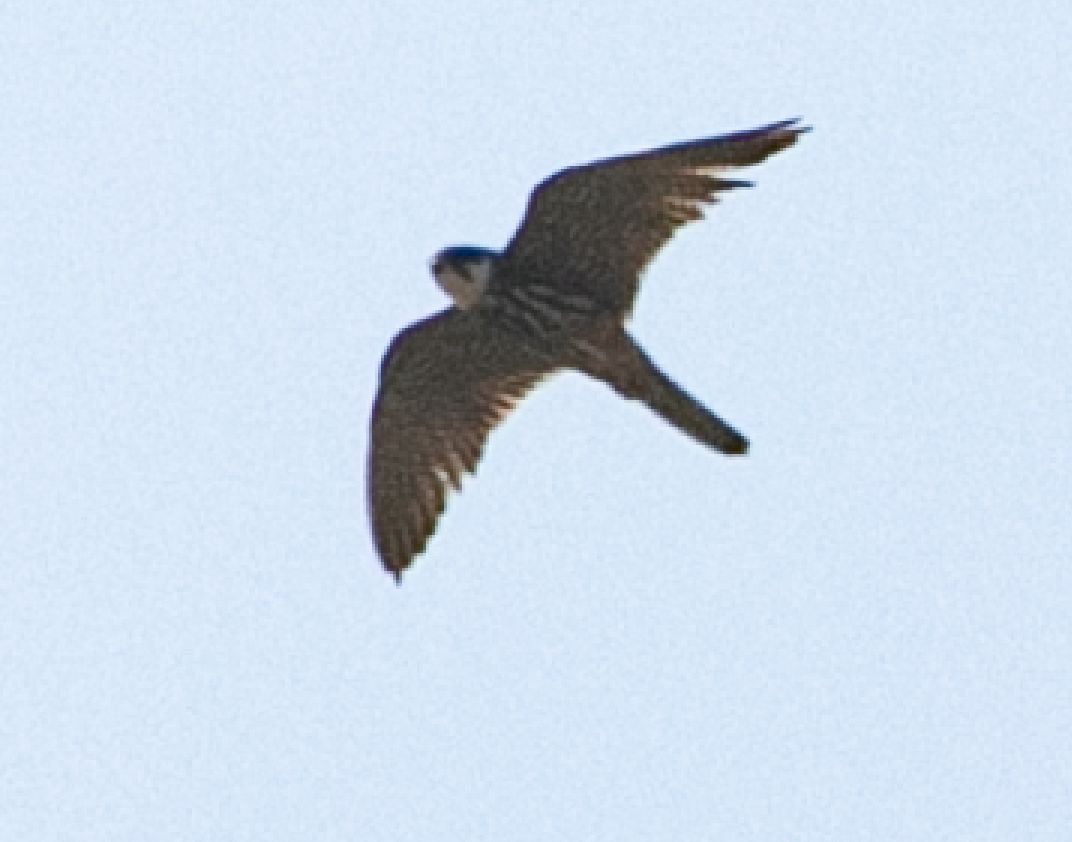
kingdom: Animalia
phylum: Chordata
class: Aves
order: Falconiformes
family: Falconidae
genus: Falco
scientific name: Falco subbuteo
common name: Eurasian hobby
